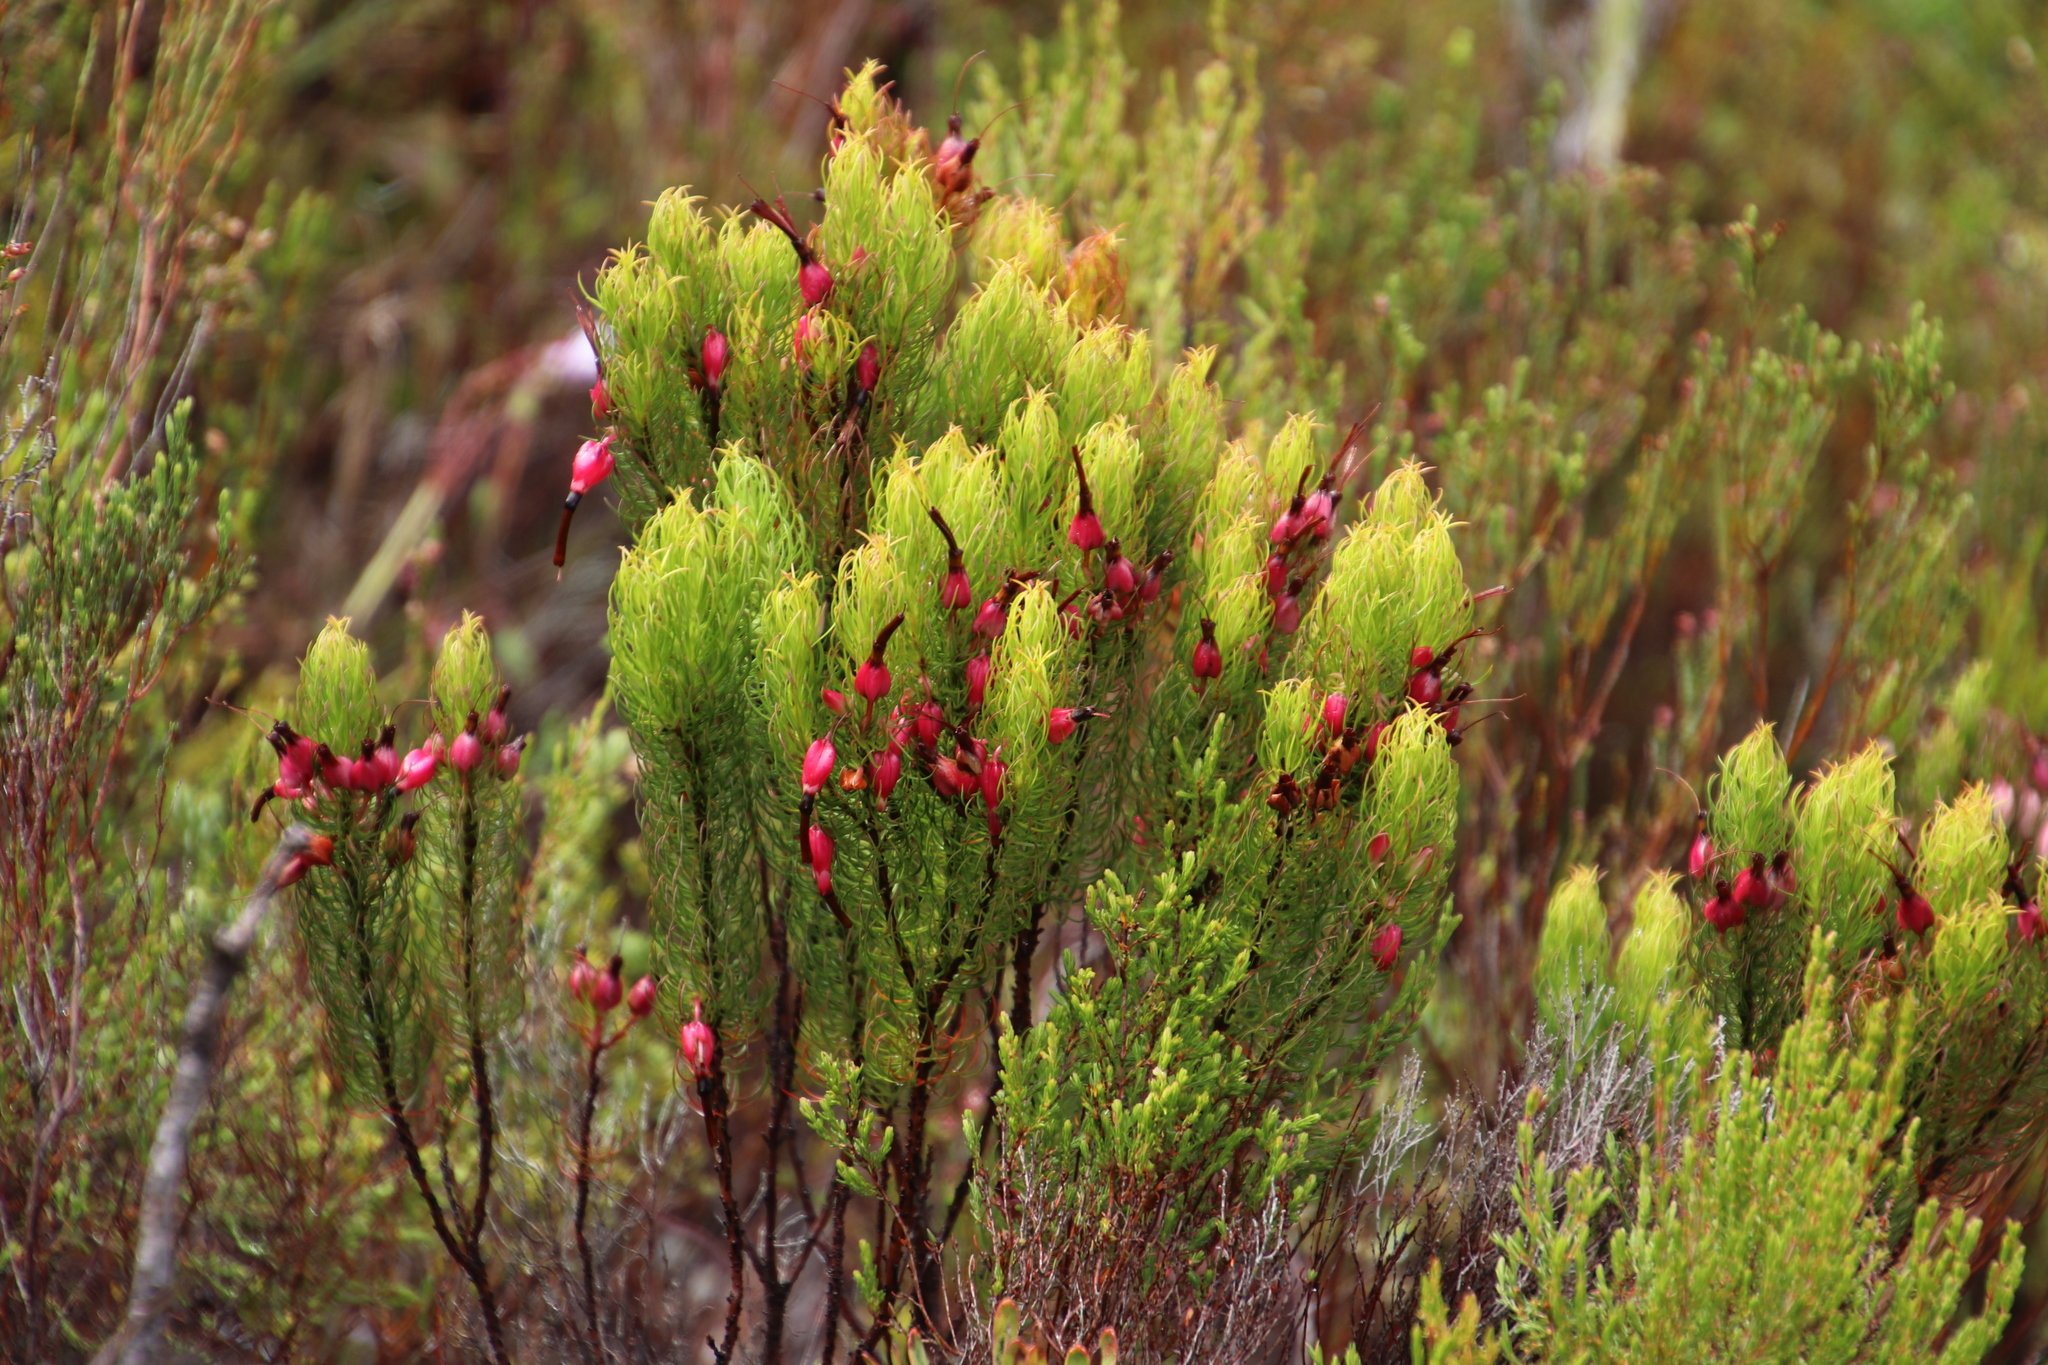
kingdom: Plantae
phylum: Tracheophyta
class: Magnoliopsida
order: Ericales
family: Ericaceae
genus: Erica
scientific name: Erica plukenetii
